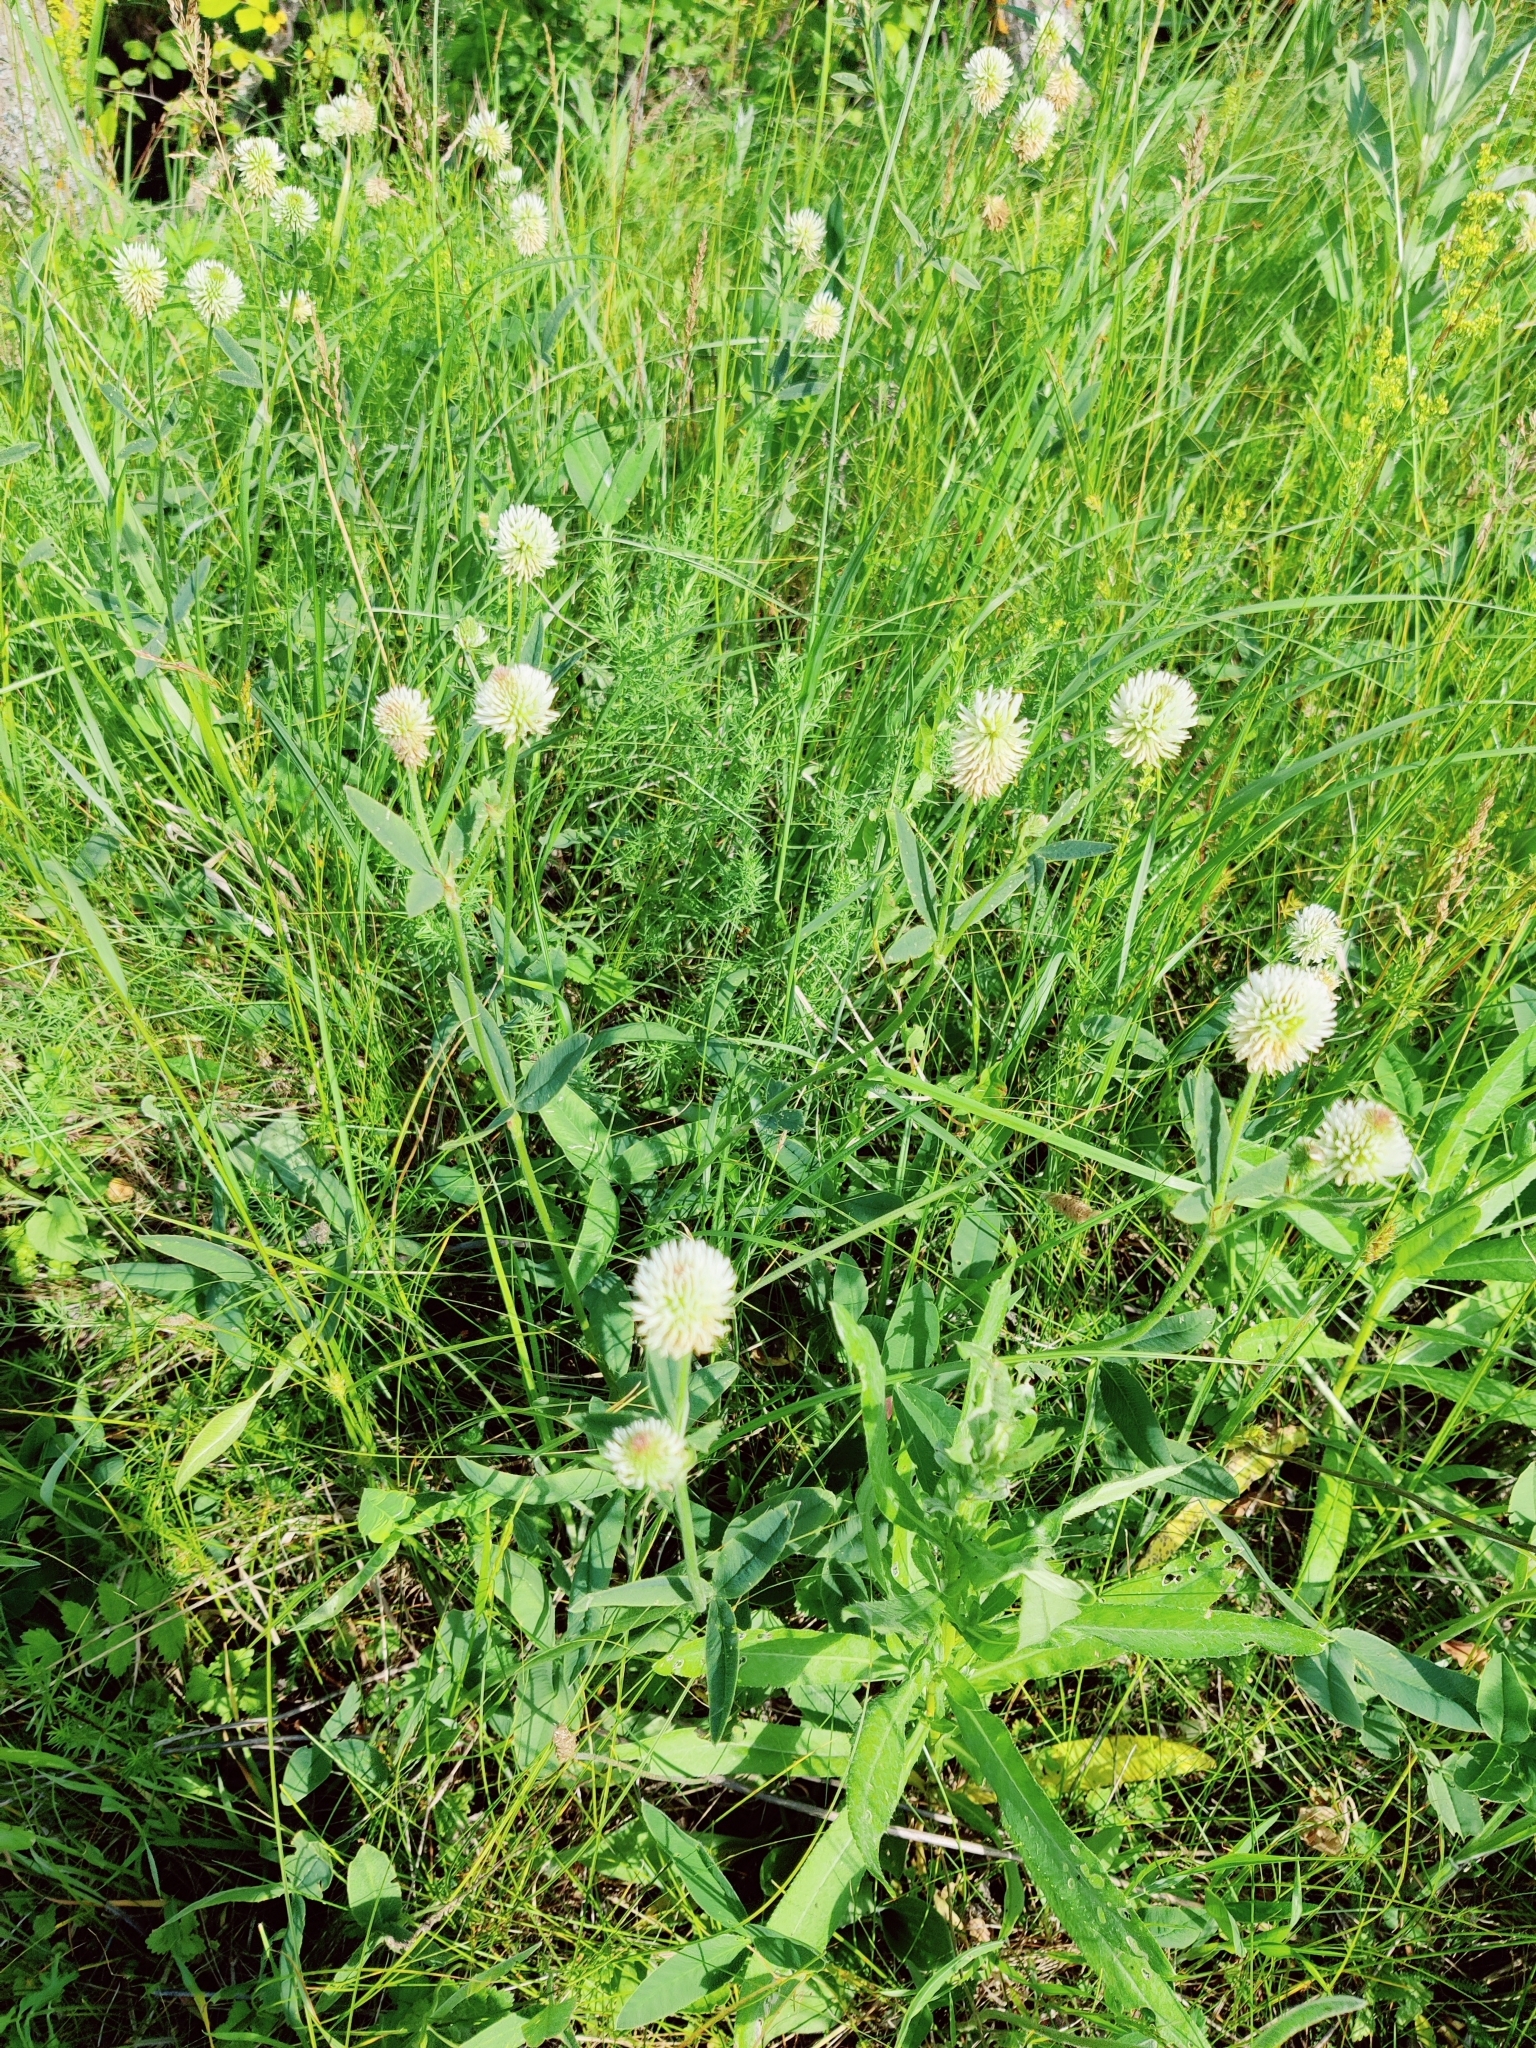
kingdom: Plantae
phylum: Tracheophyta
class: Magnoliopsida
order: Fabales
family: Fabaceae
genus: Trifolium
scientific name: Trifolium montanum
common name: Mountain clover
